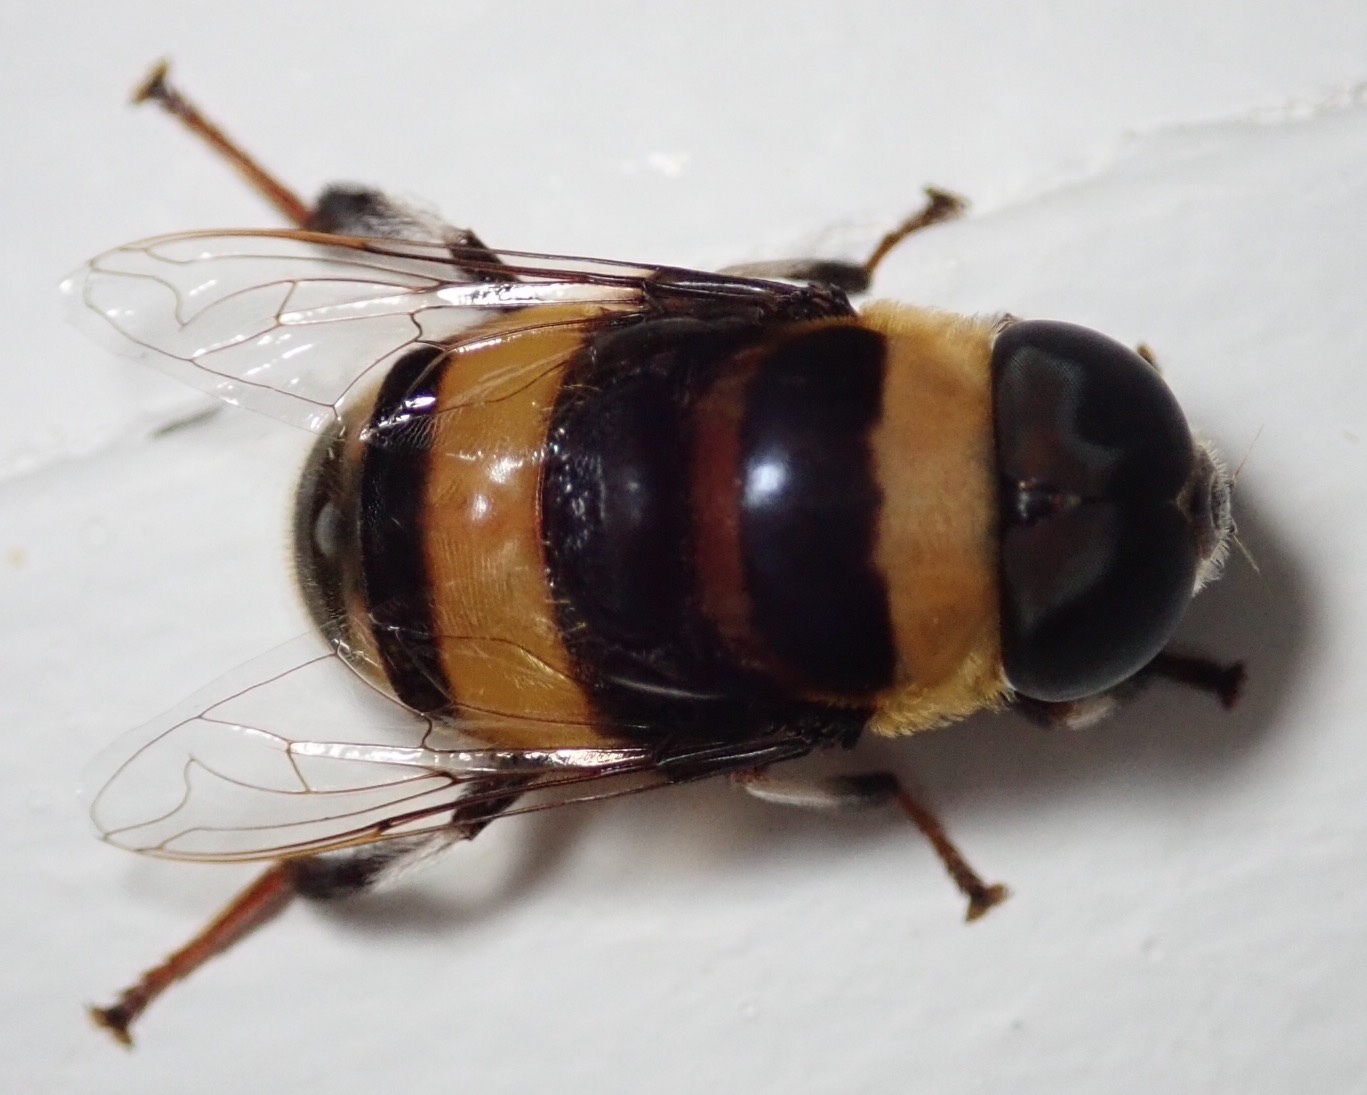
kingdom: Animalia
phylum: Arthropoda
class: Insecta
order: Diptera
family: Syrphidae
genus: Phytomia
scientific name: Phytomia curta
